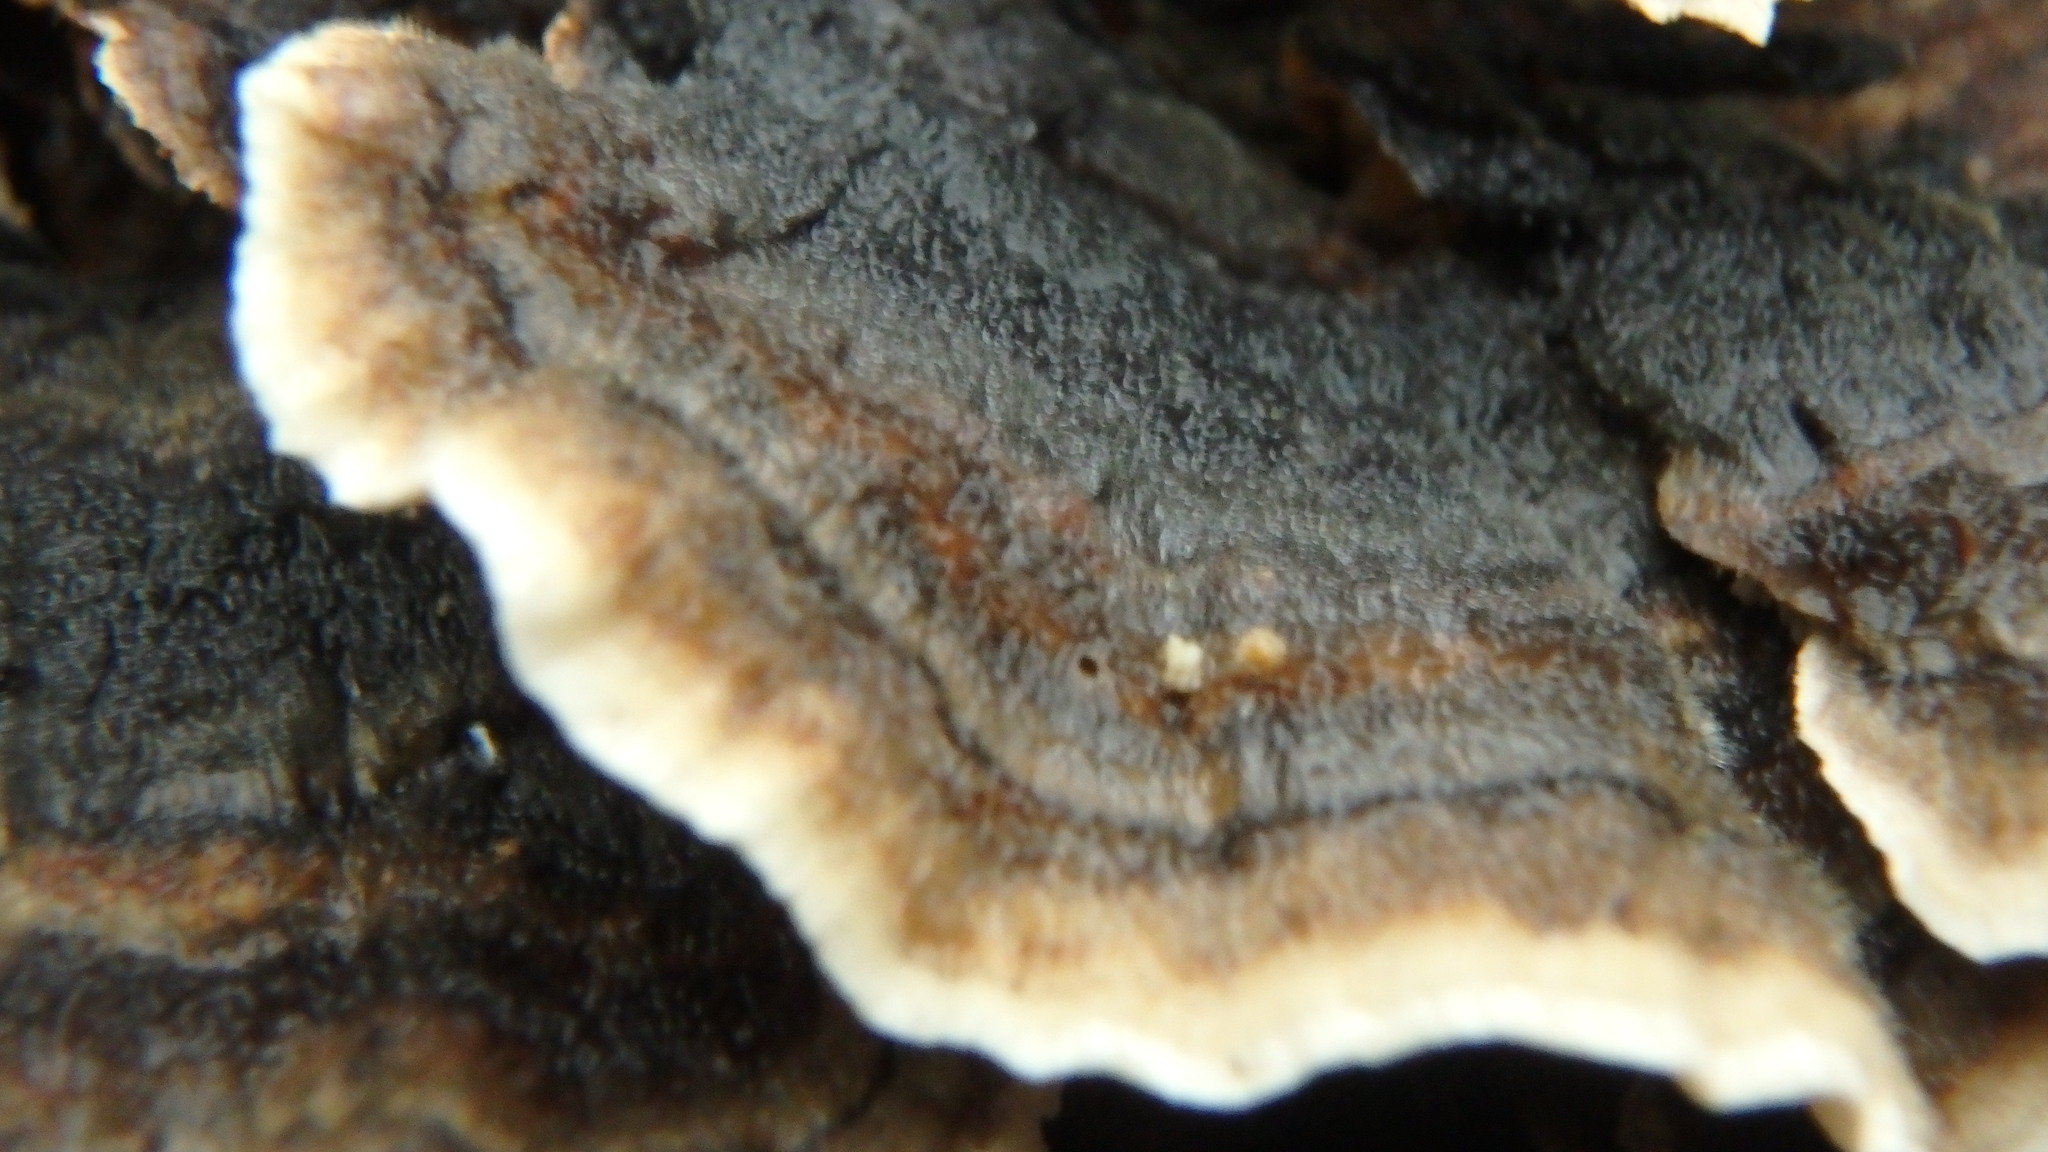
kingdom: Fungi
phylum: Basidiomycota
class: Agaricomycetes
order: Polyporales
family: Polyporaceae
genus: Trametes
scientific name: Trametes versicolor
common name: Turkeytail
